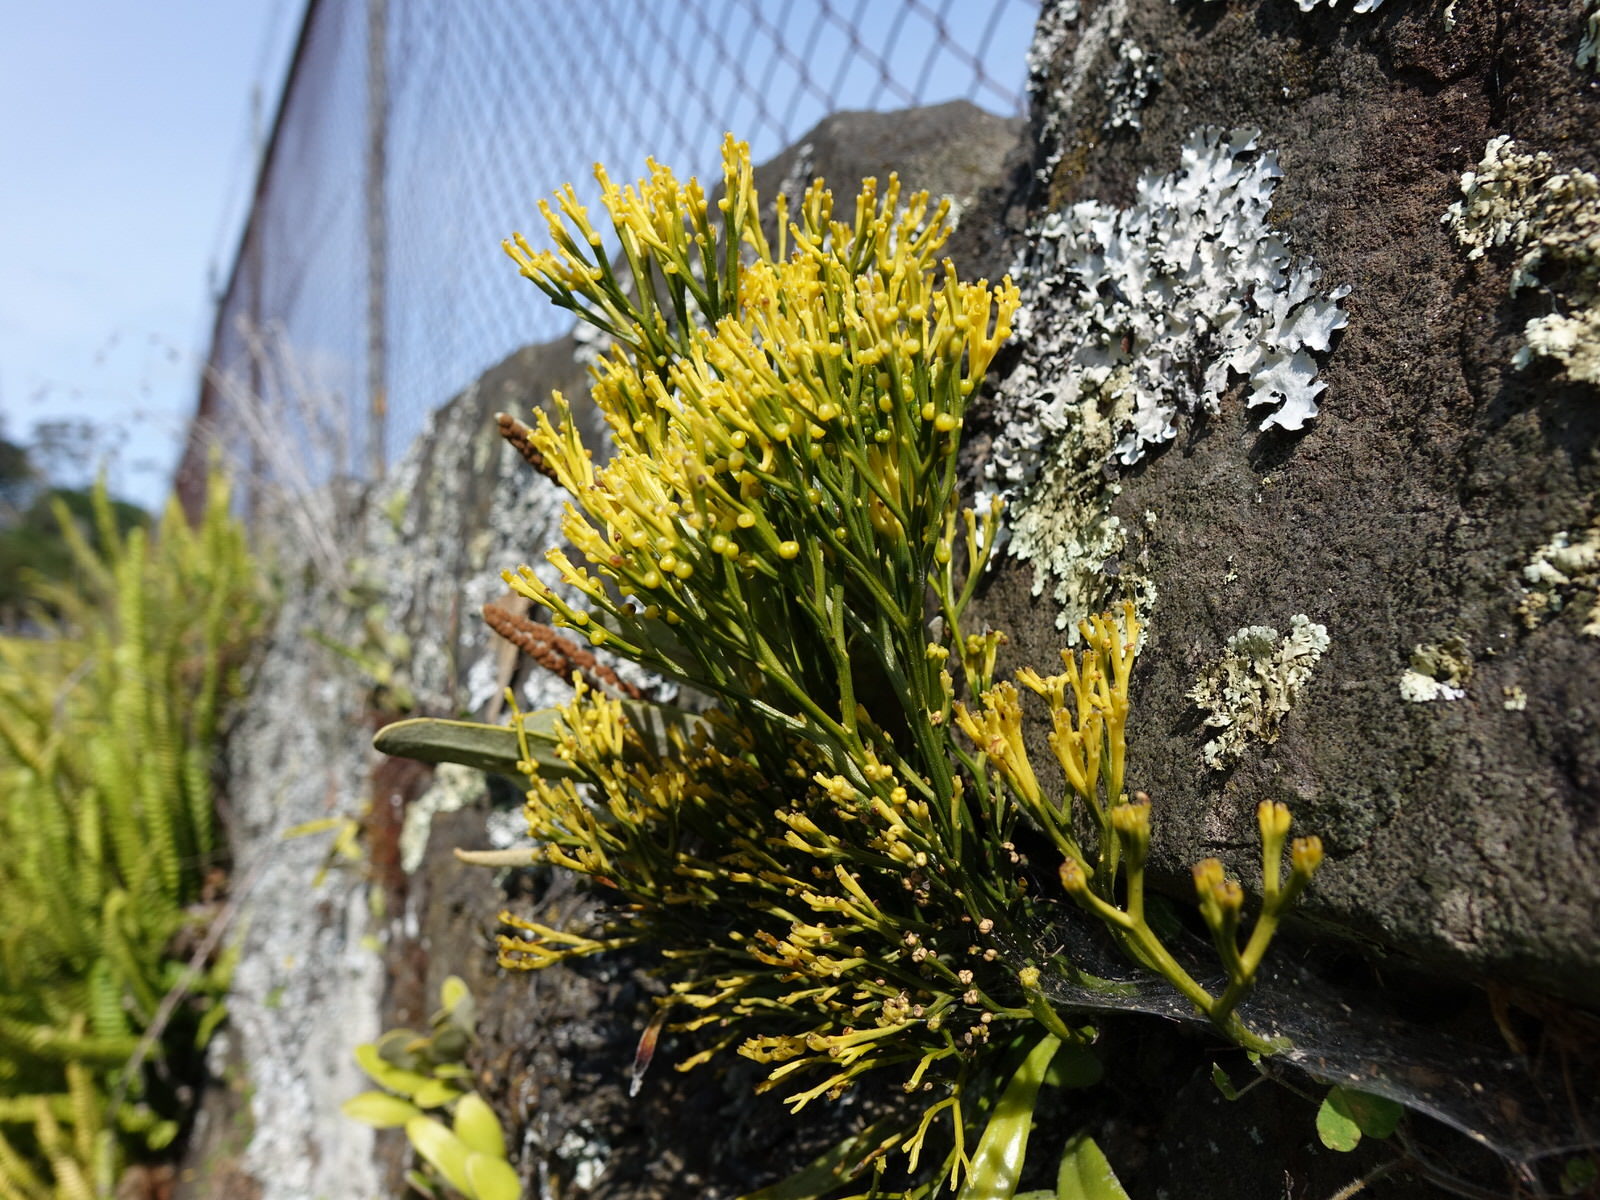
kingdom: Plantae
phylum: Tracheophyta
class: Polypodiopsida
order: Psilotales
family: Psilotaceae
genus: Psilotum
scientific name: Psilotum nudum
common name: Skeleton fork fern
